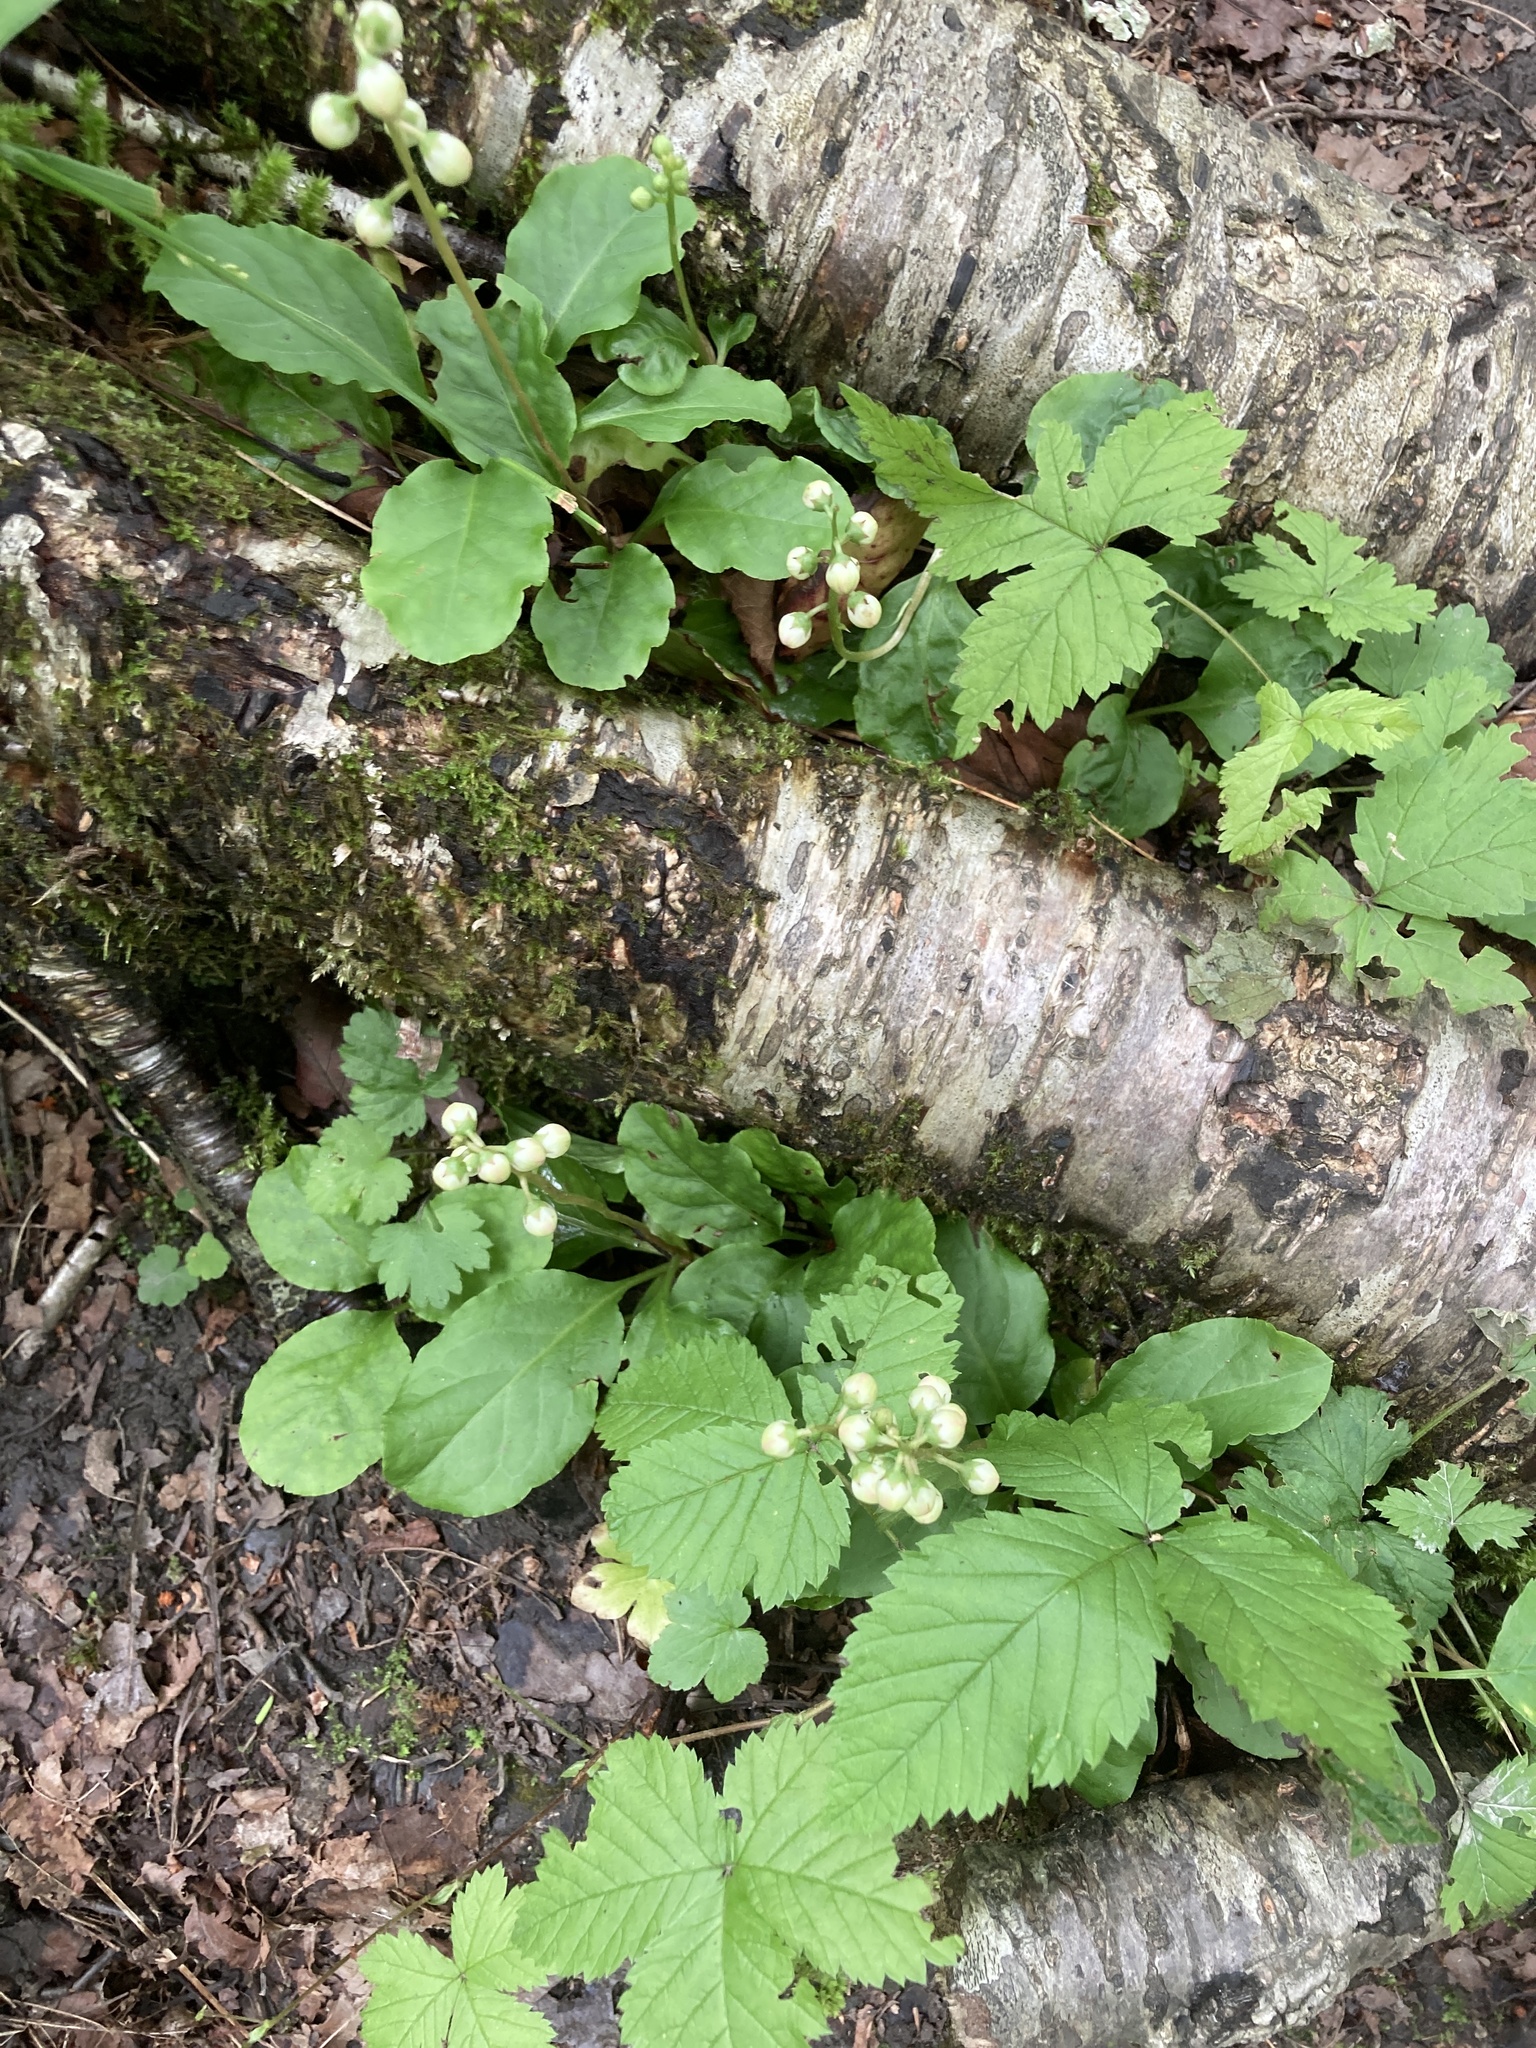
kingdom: Plantae
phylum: Tracheophyta
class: Magnoliopsida
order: Ericales
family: Ericaceae
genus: Pyrola
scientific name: Pyrola elliptica
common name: Shinleaf
